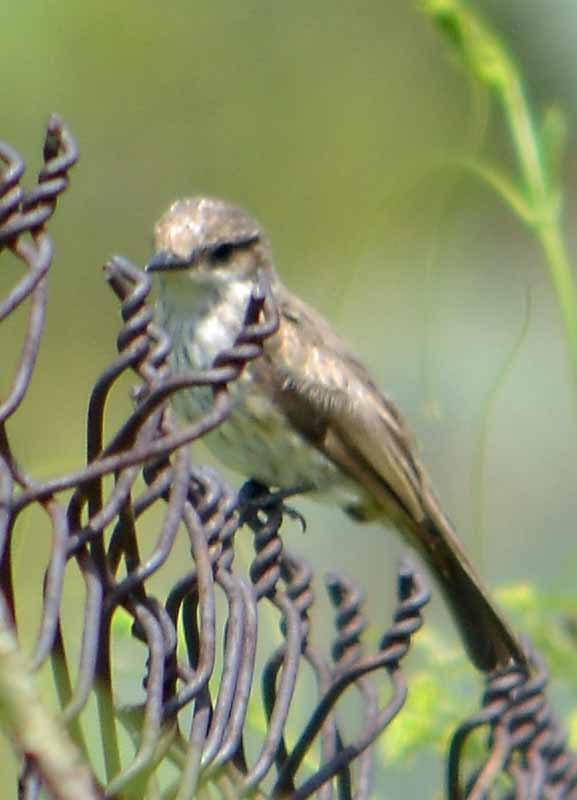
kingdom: Animalia
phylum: Chordata
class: Aves
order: Passeriformes
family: Tyrannidae
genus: Pyrocephalus
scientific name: Pyrocephalus rubinus
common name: Vermilion flycatcher
